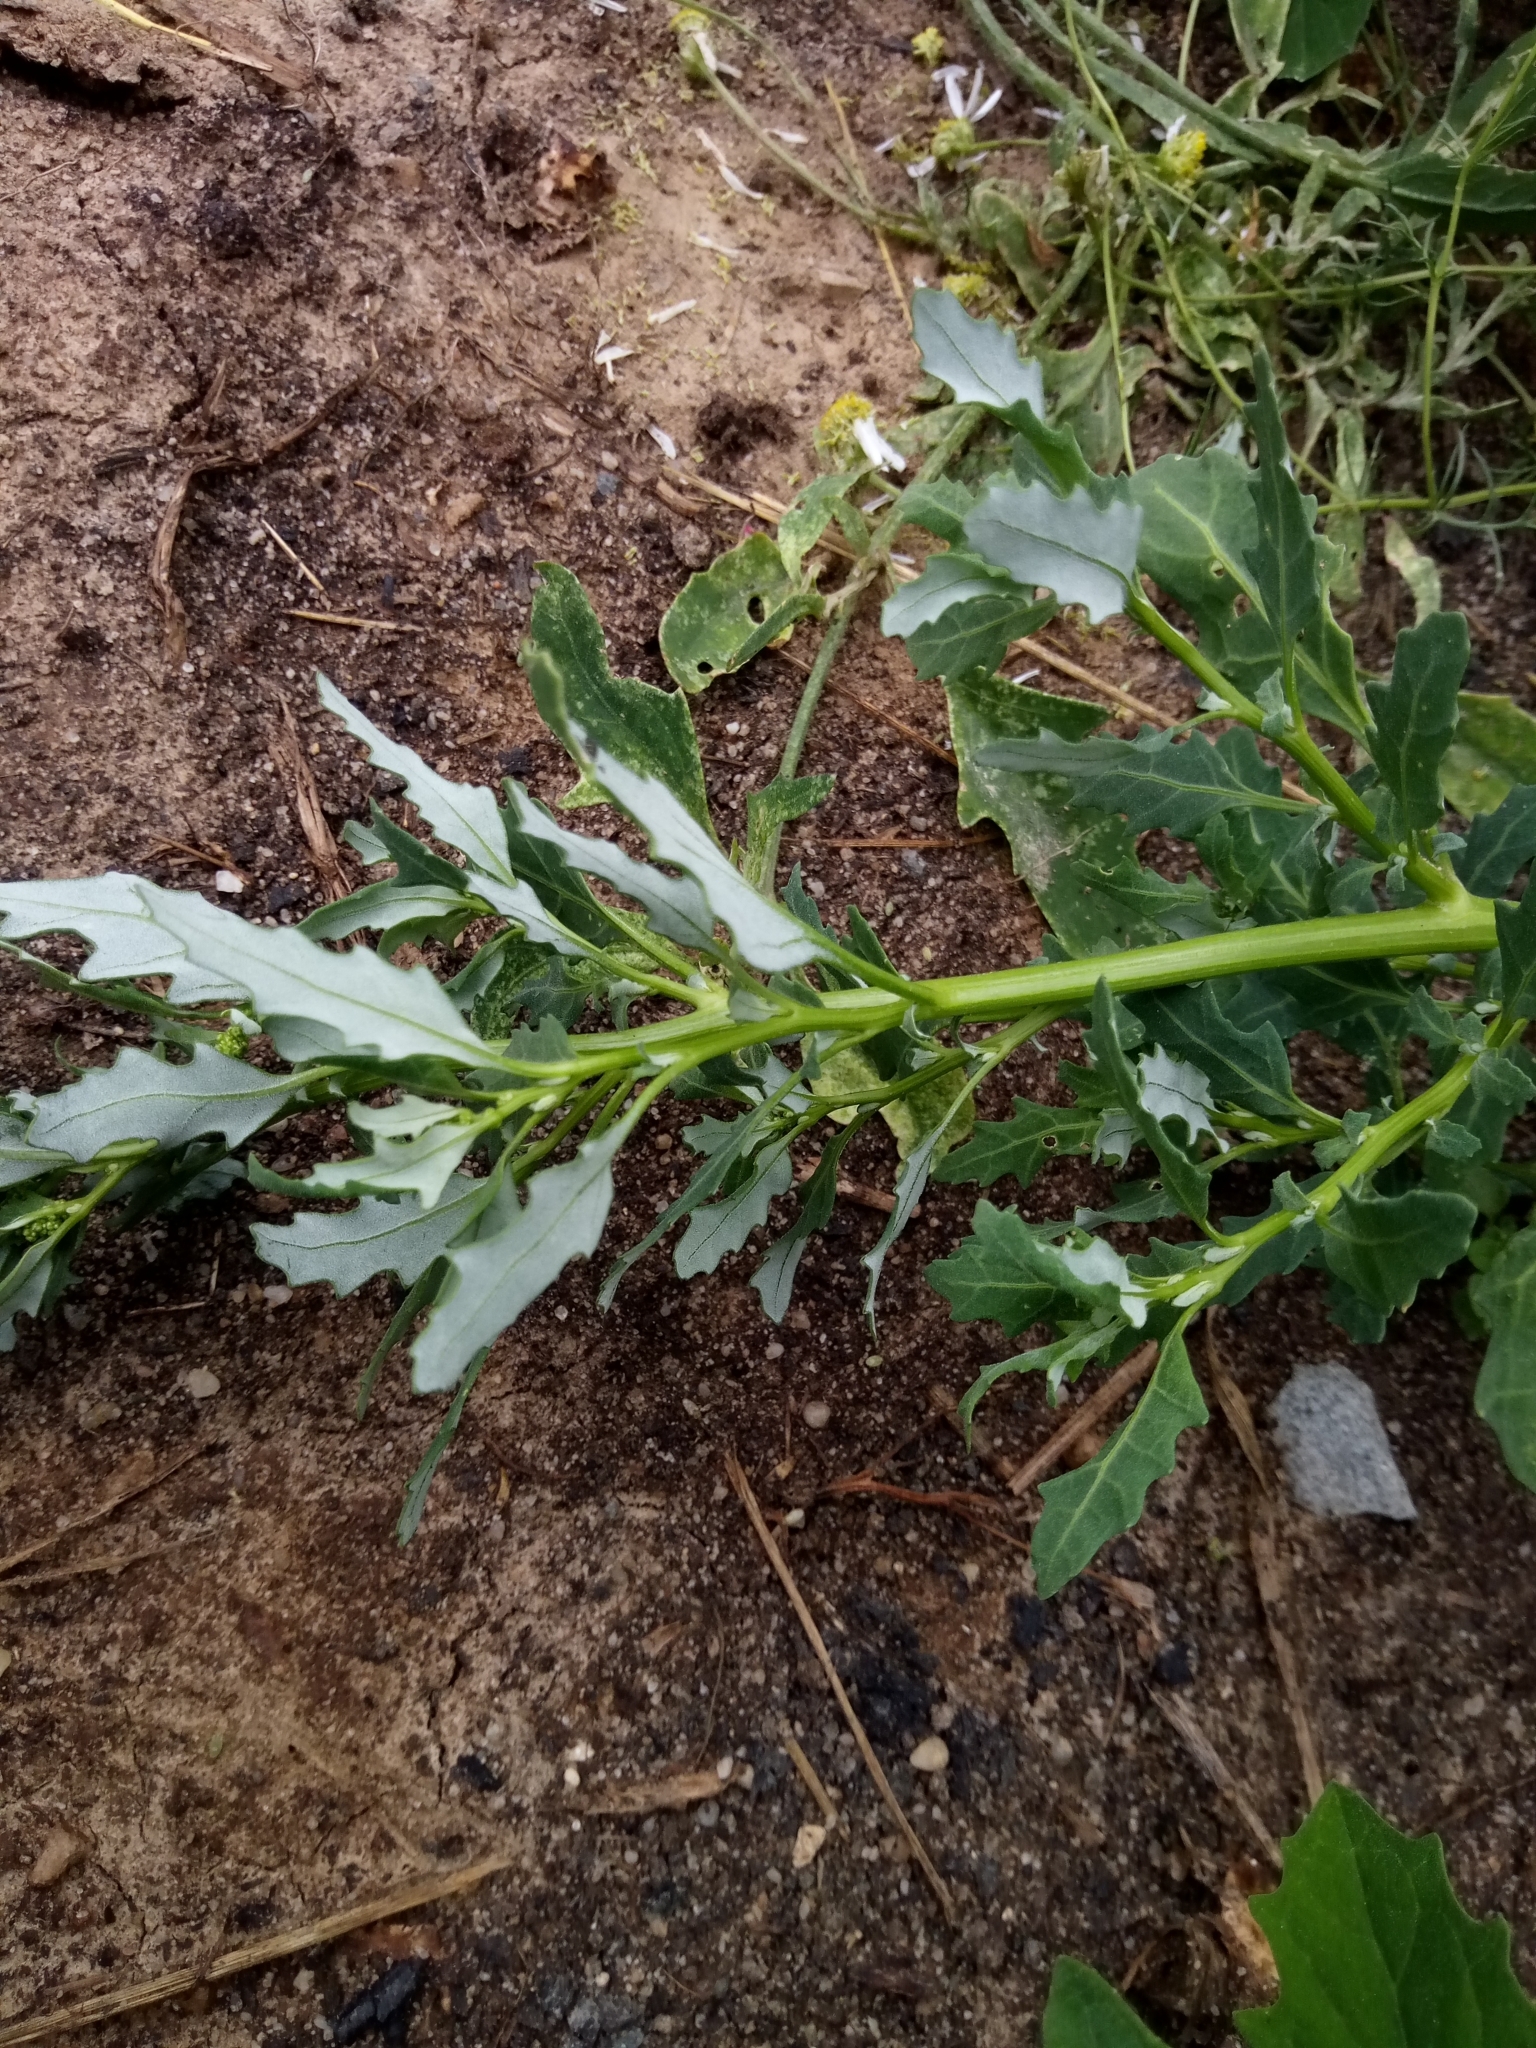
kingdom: Plantae
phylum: Tracheophyta
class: Magnoliopsida
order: Caryophyllales
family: Amaranthaceae
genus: Oxybasis
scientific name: Oxybasis glauca
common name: Glaucous goosefoot
